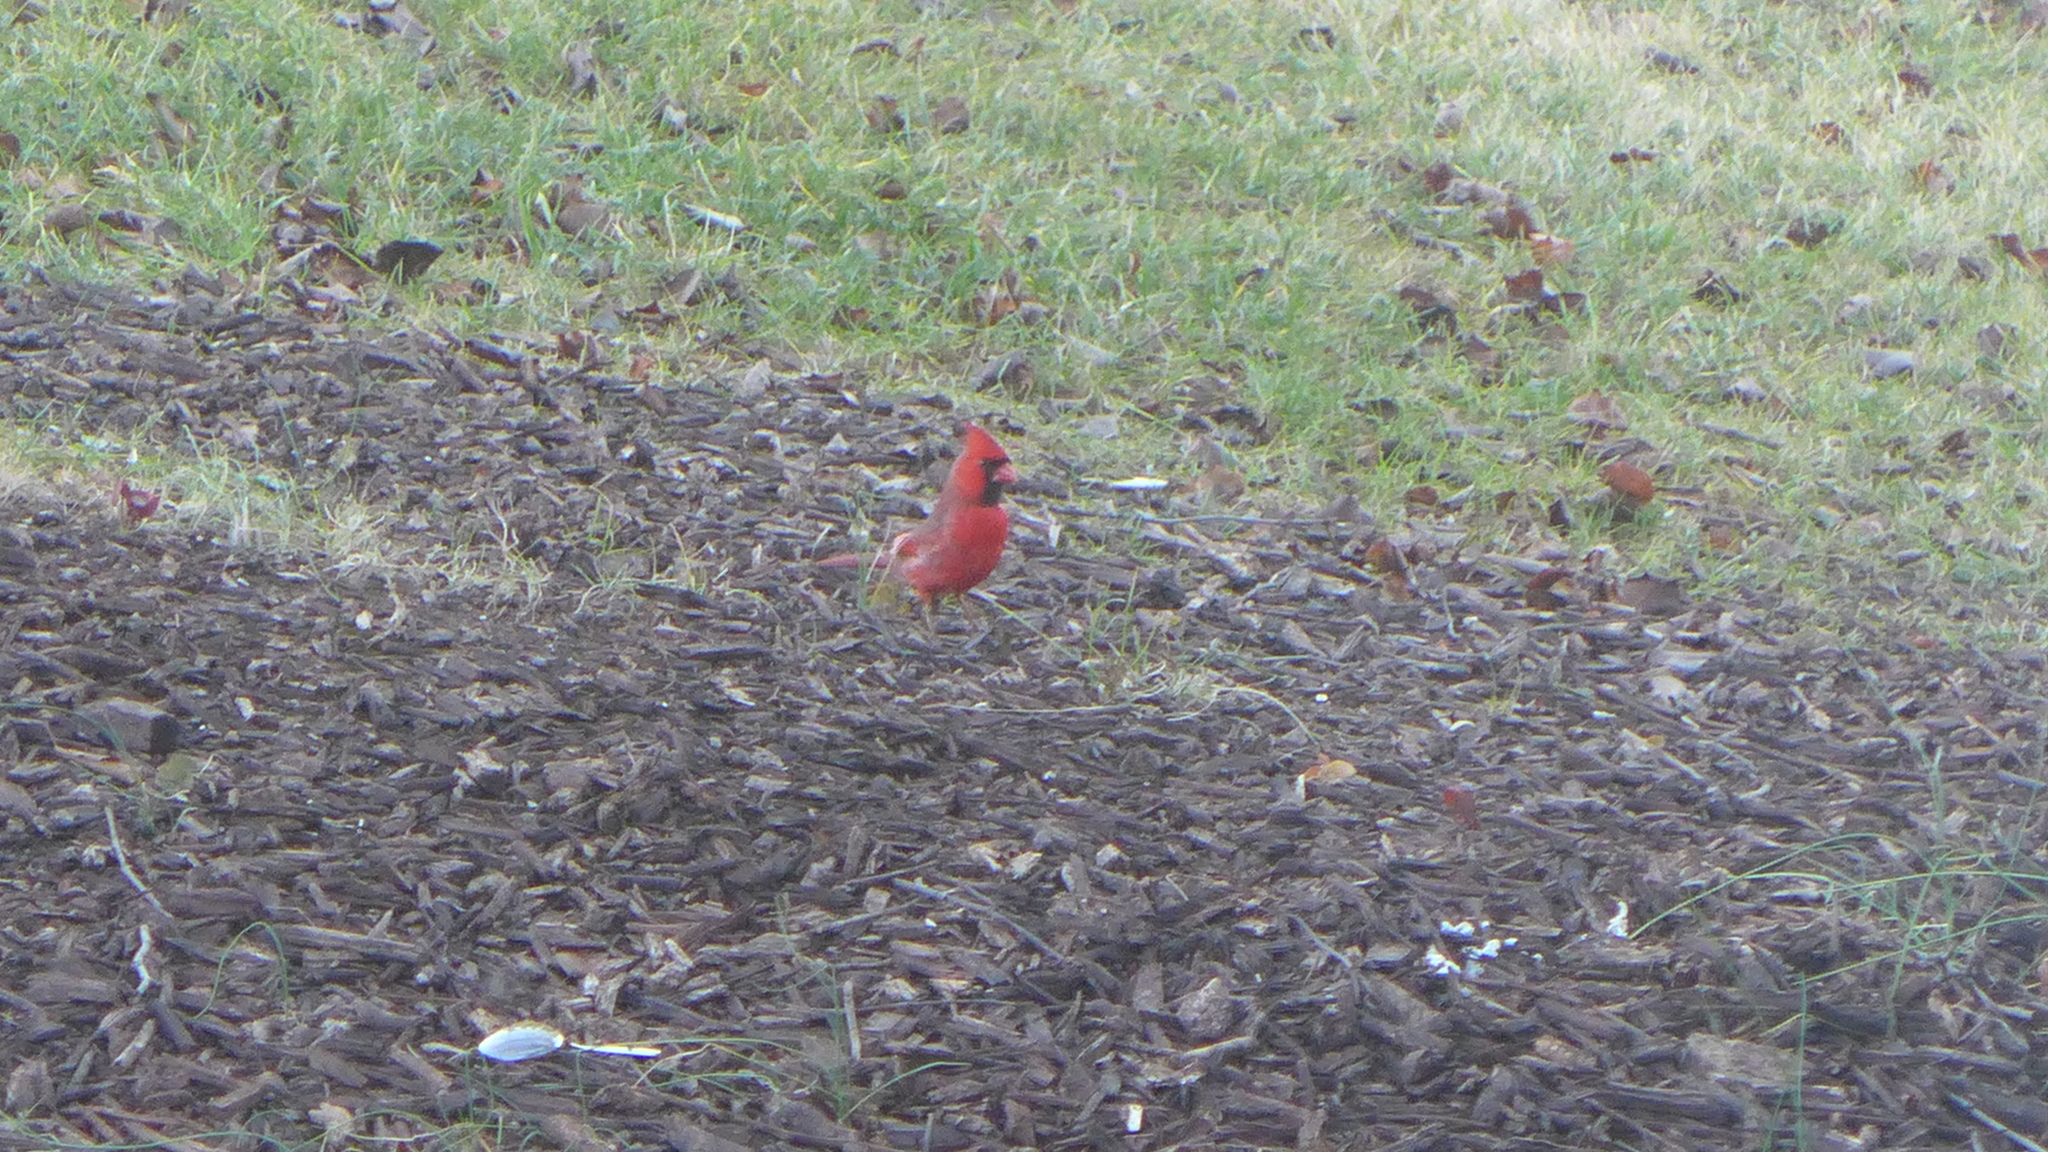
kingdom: Animalia
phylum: Chordata
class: Aves
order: Passeriformes
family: Cardinalidae
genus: Cardinalis
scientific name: Cardinalis cardinalis
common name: Northern cardinal
